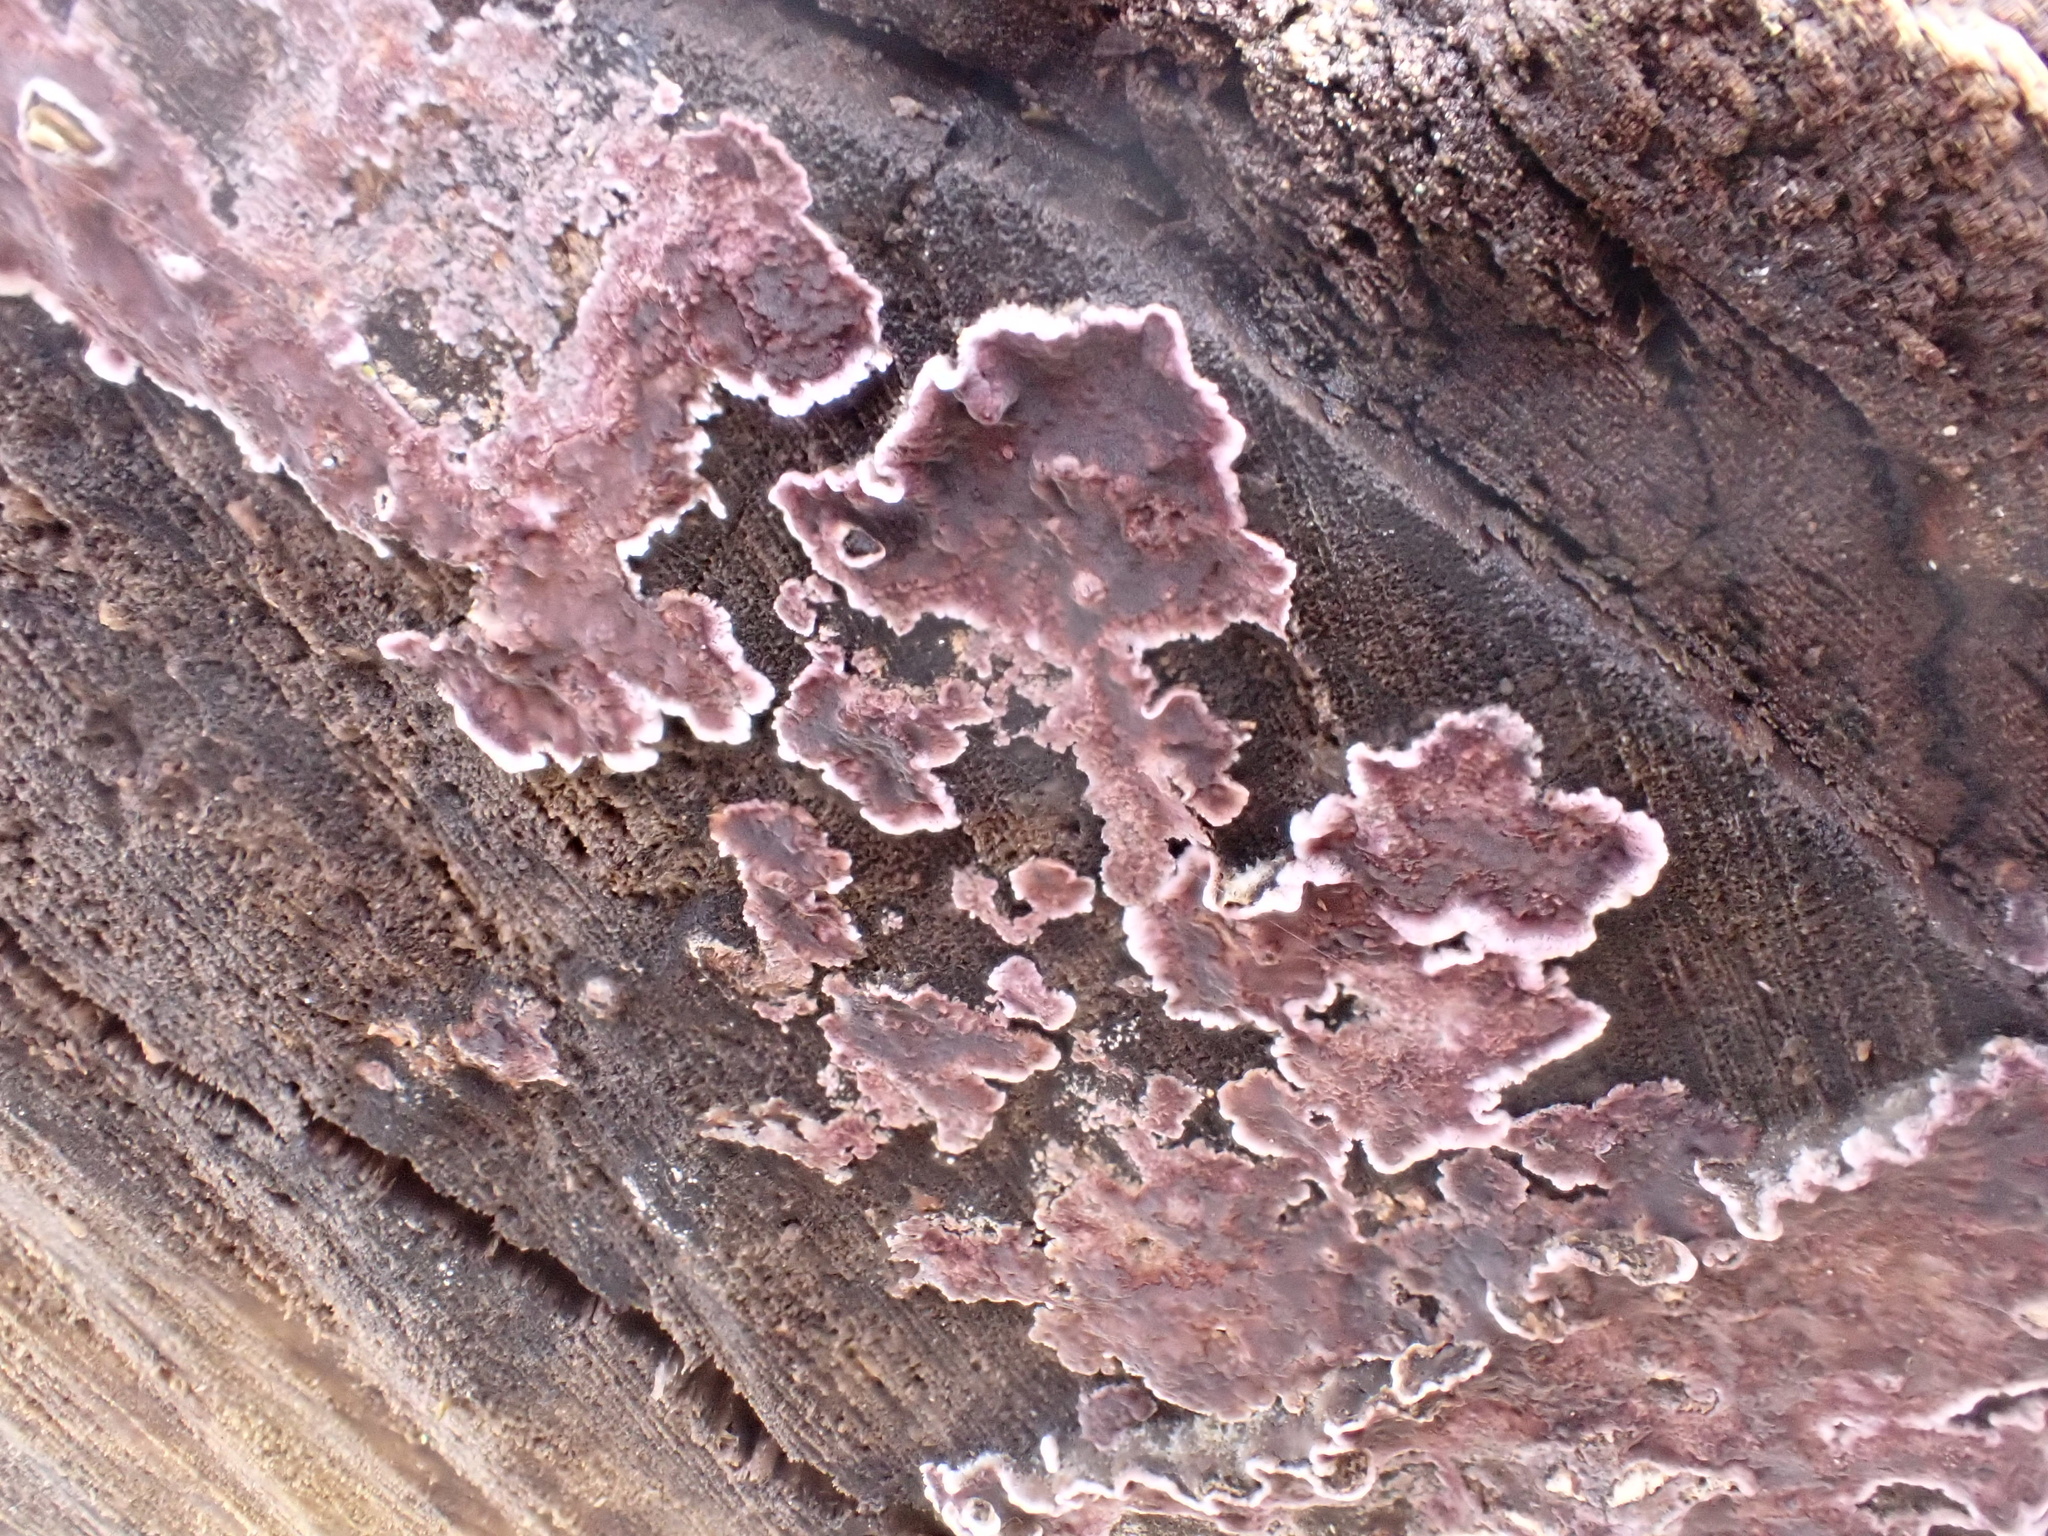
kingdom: Fungi
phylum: Basidiomycota
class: Agaricomycetes
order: Agaricales
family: Cyphellaceae
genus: Chondrostereum
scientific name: Chondrostereum purpureum
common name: Silver leaf disease
